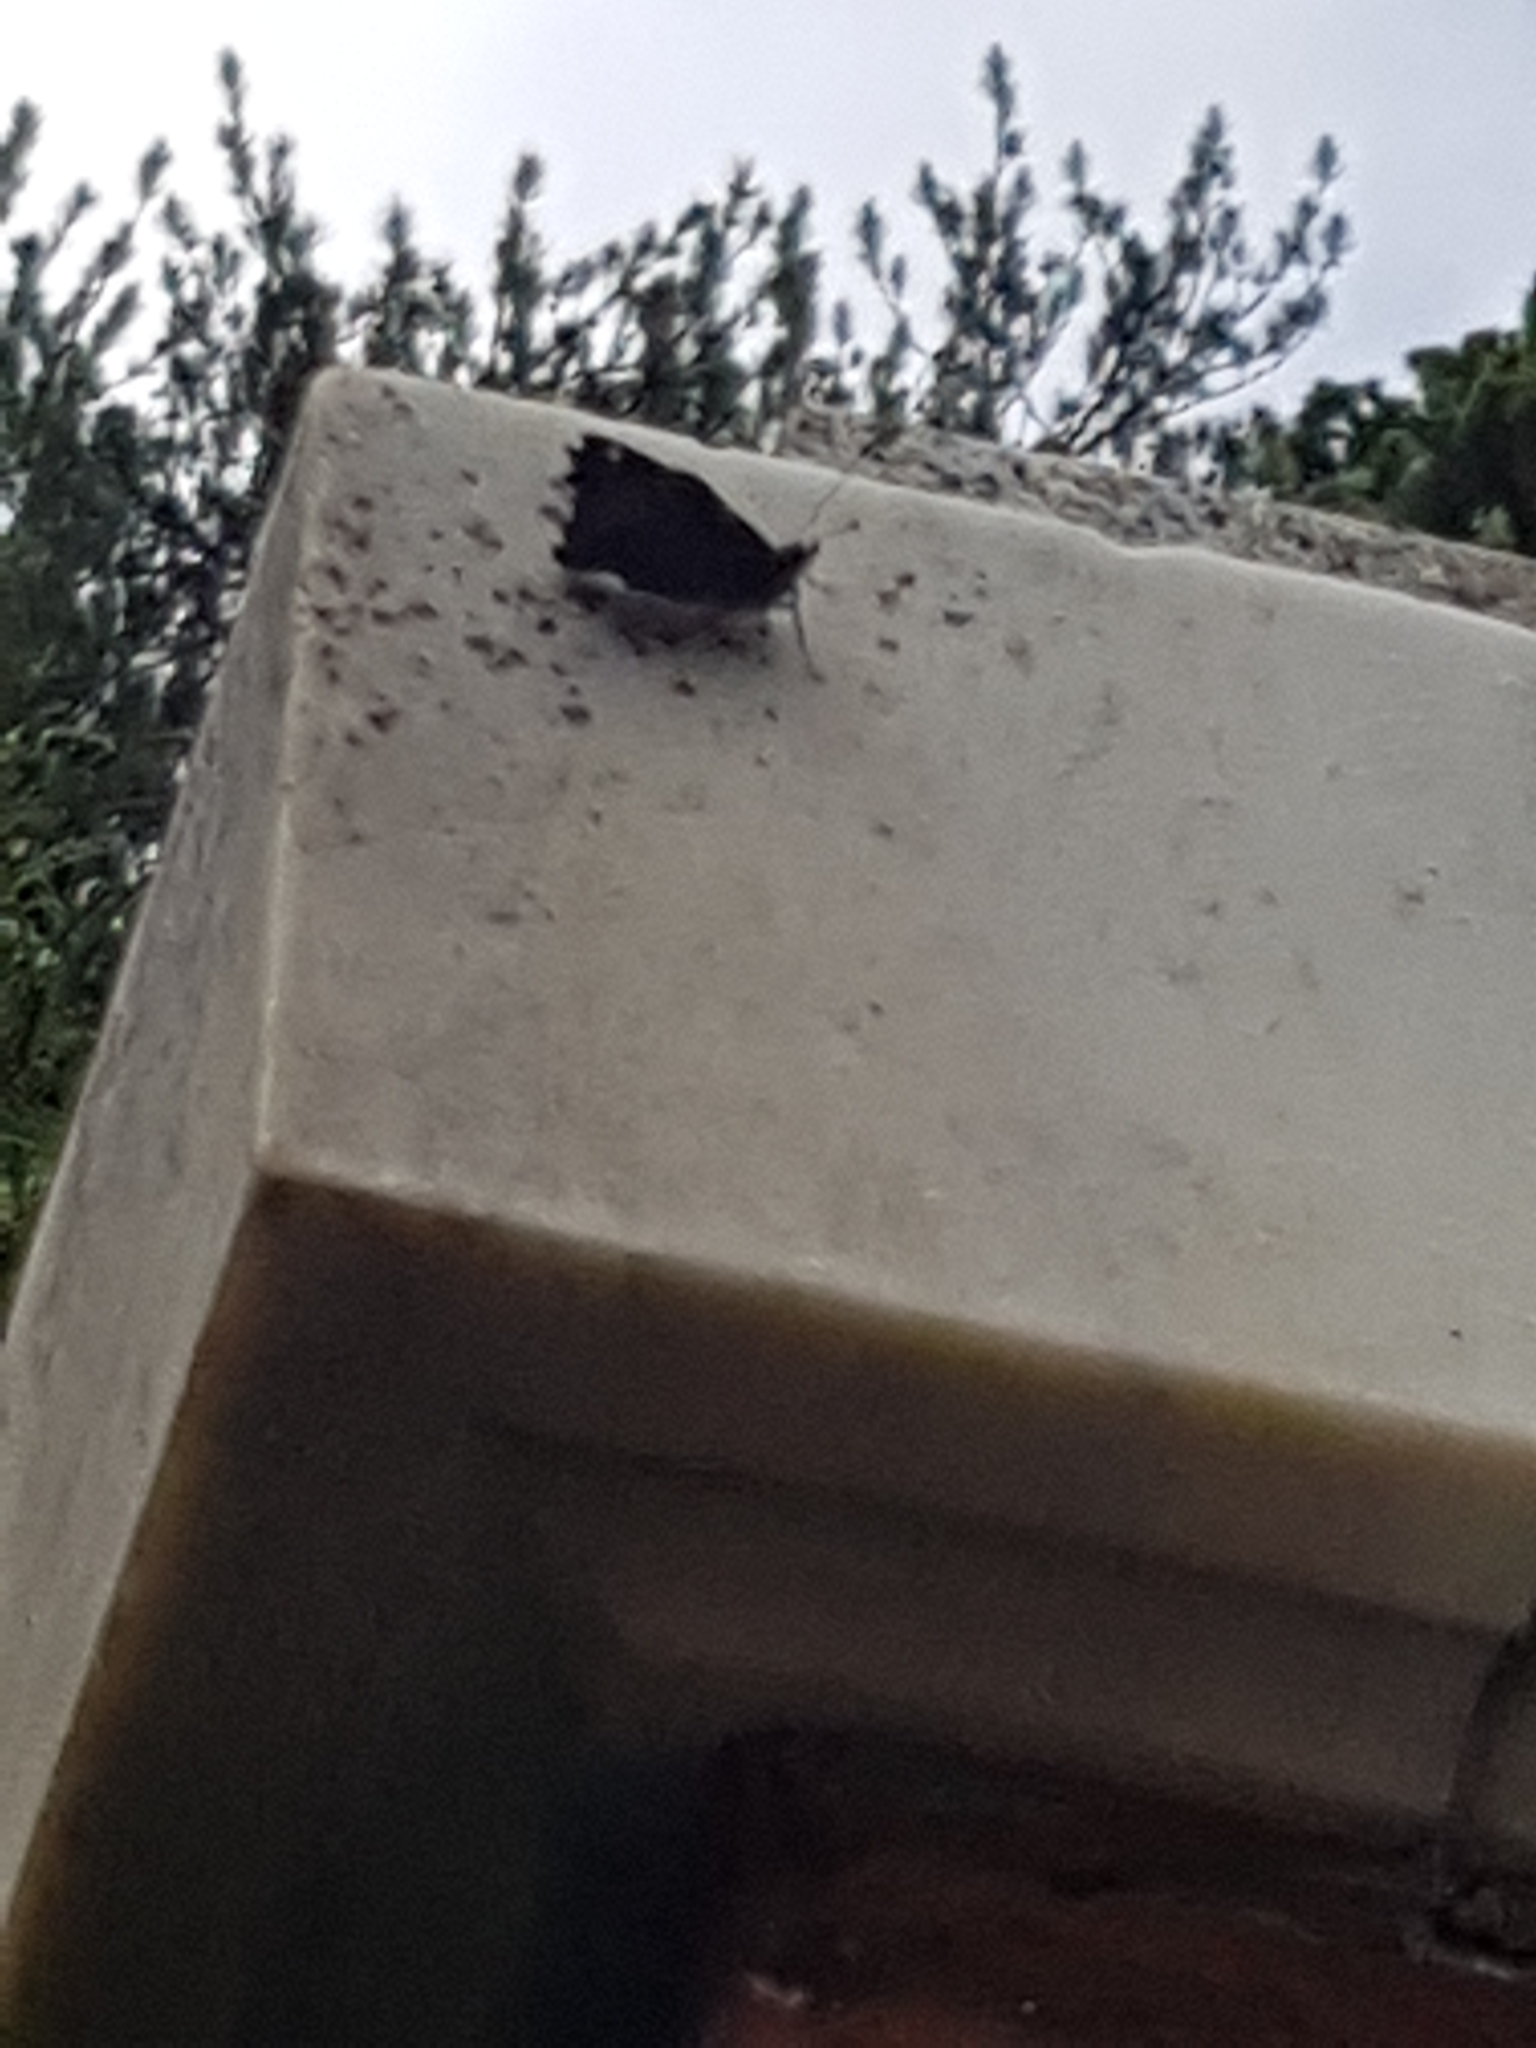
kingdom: Animalia
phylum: Arthropoda
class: Insecta
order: Lepidoptera
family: Nymphalidae
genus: Vanessa
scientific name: Vanessa itea
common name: Yellow admiral
